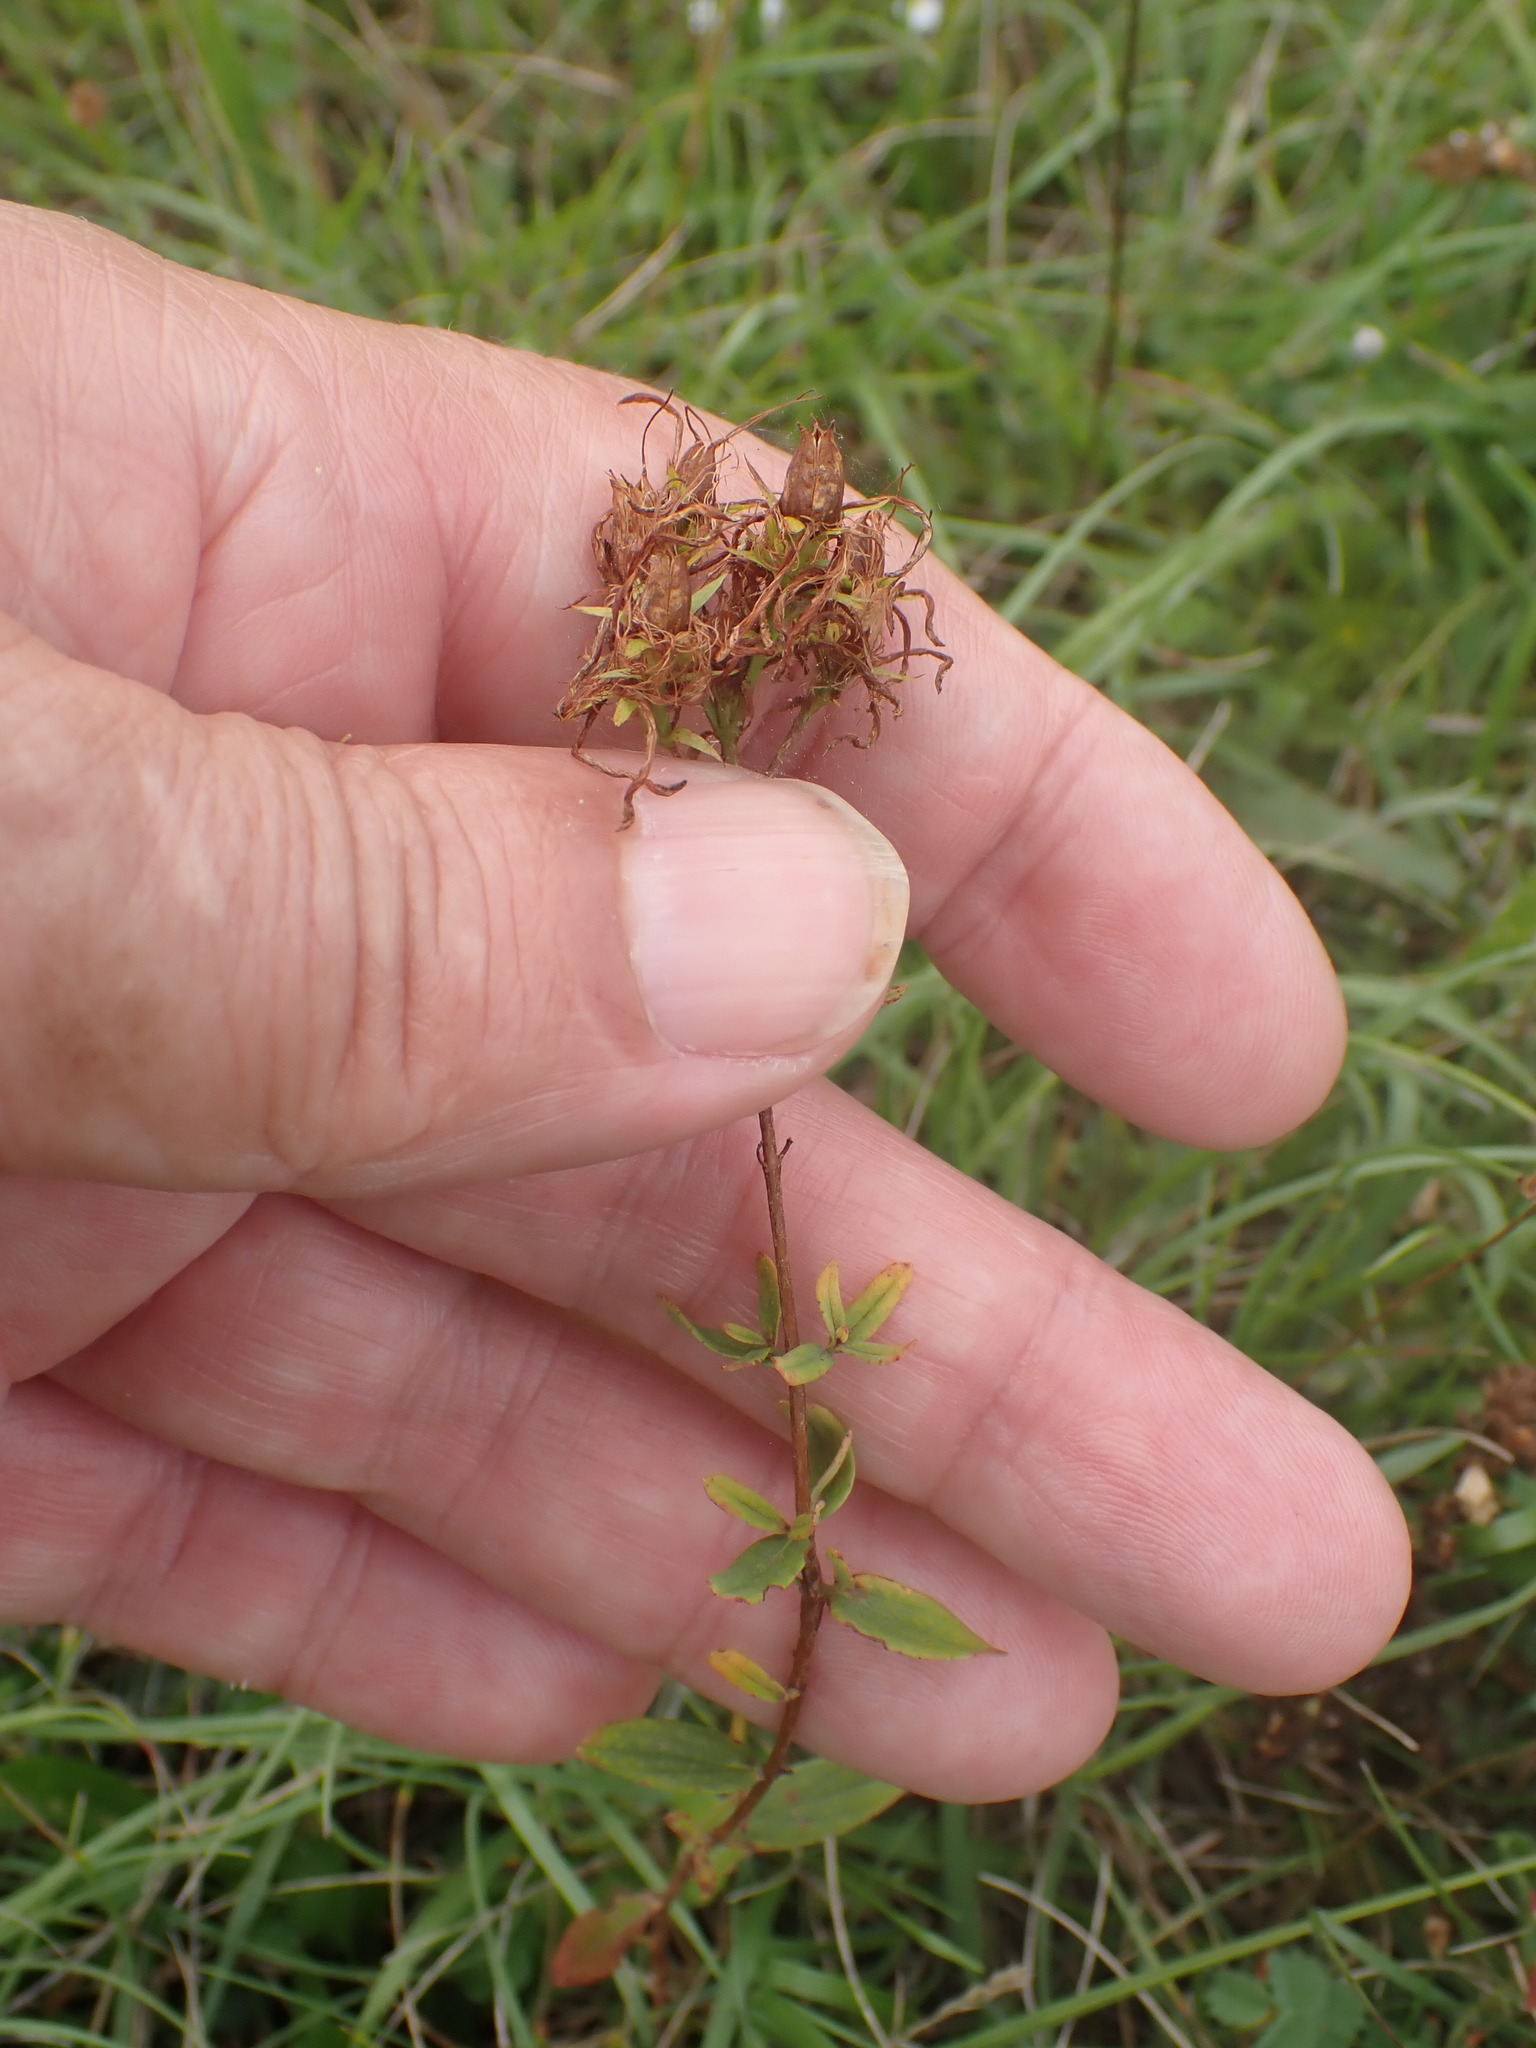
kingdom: Plantae
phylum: Tracheophyta
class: Magnoliopsida
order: Malpighiales
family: Hypericaceae
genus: Hypericum
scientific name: Hypericum perforatum
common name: Common st. johnswort
